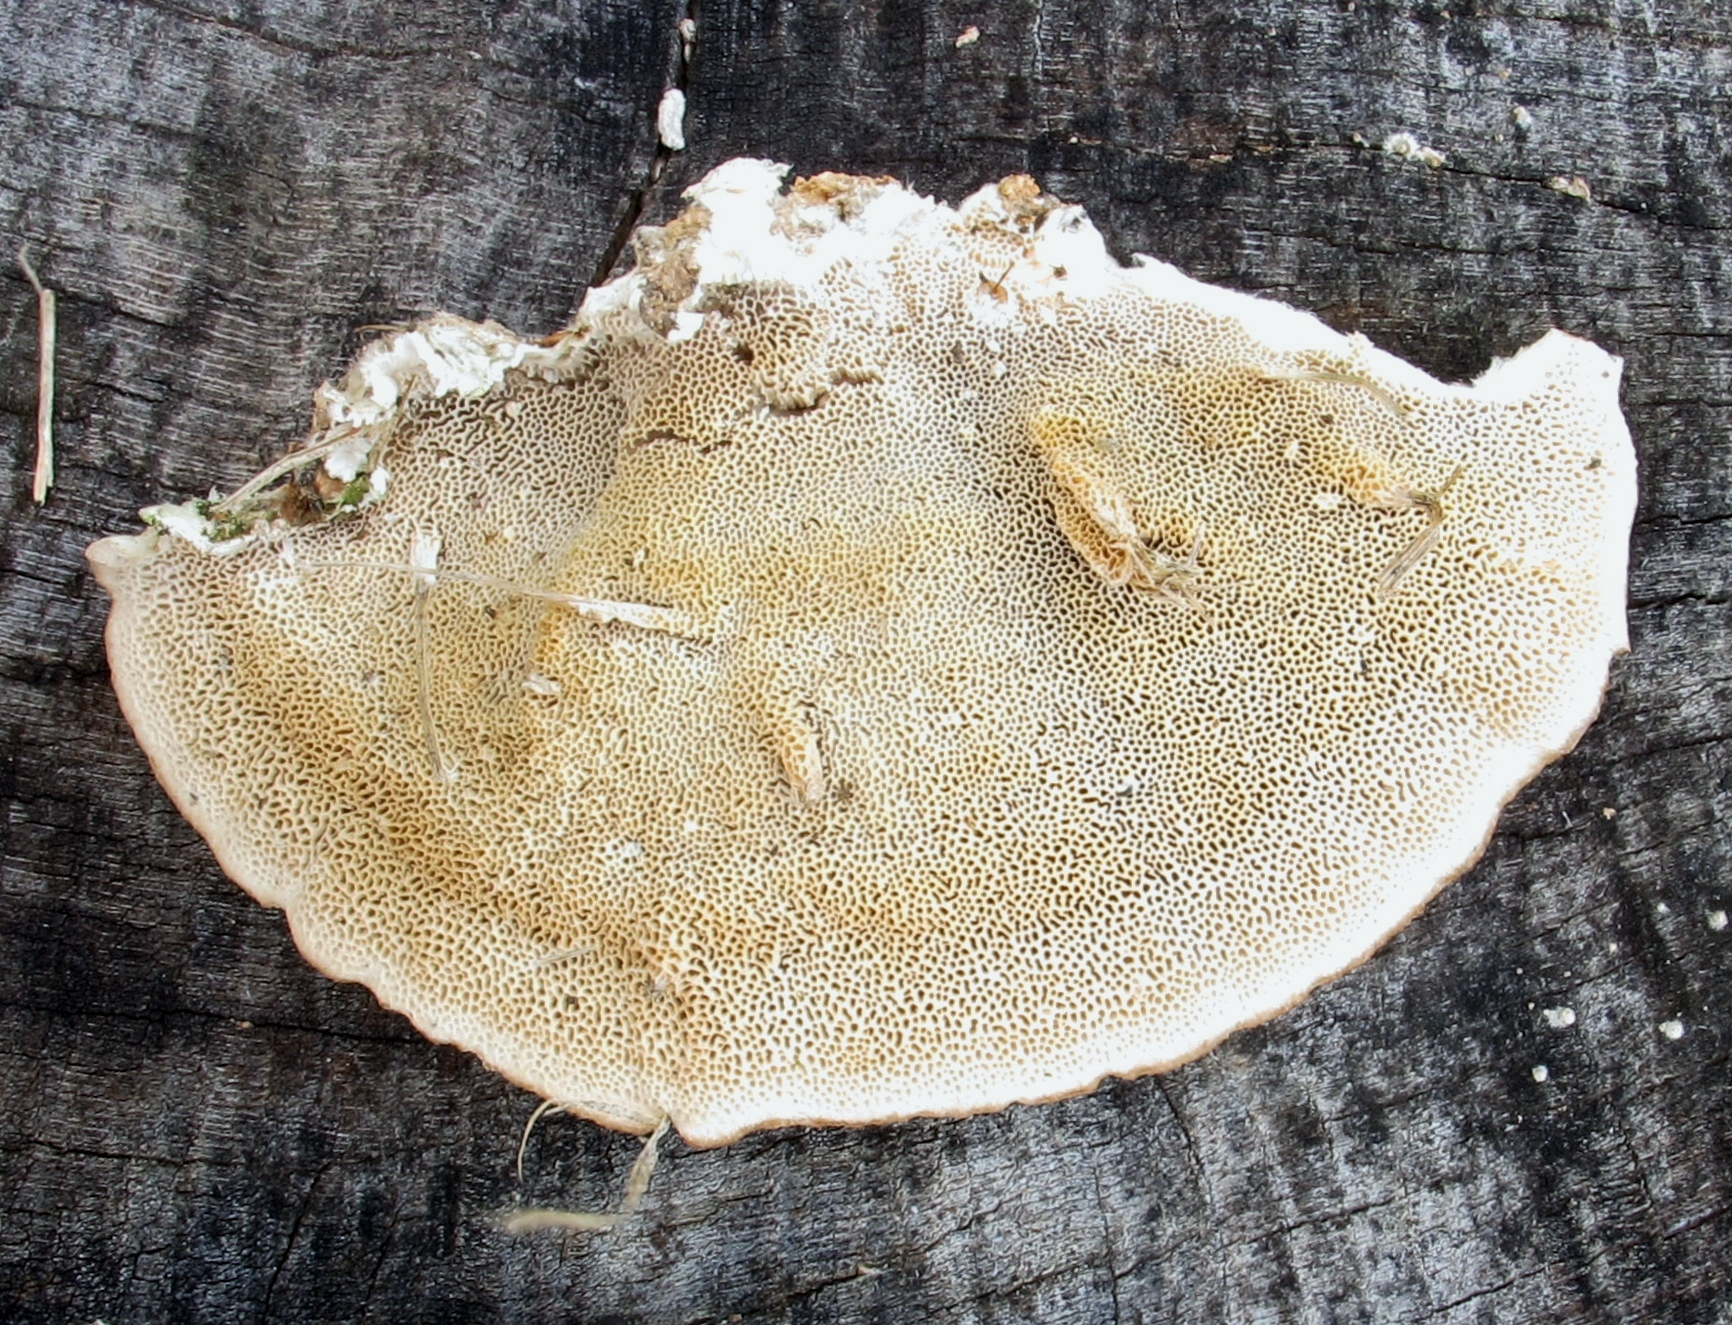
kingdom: Fungi
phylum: Basidiomycota
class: Agaricomycetes
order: Polyporales
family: Polyporaceae
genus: Trametes
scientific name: Trametes hirsuta
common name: Hairy bracket
